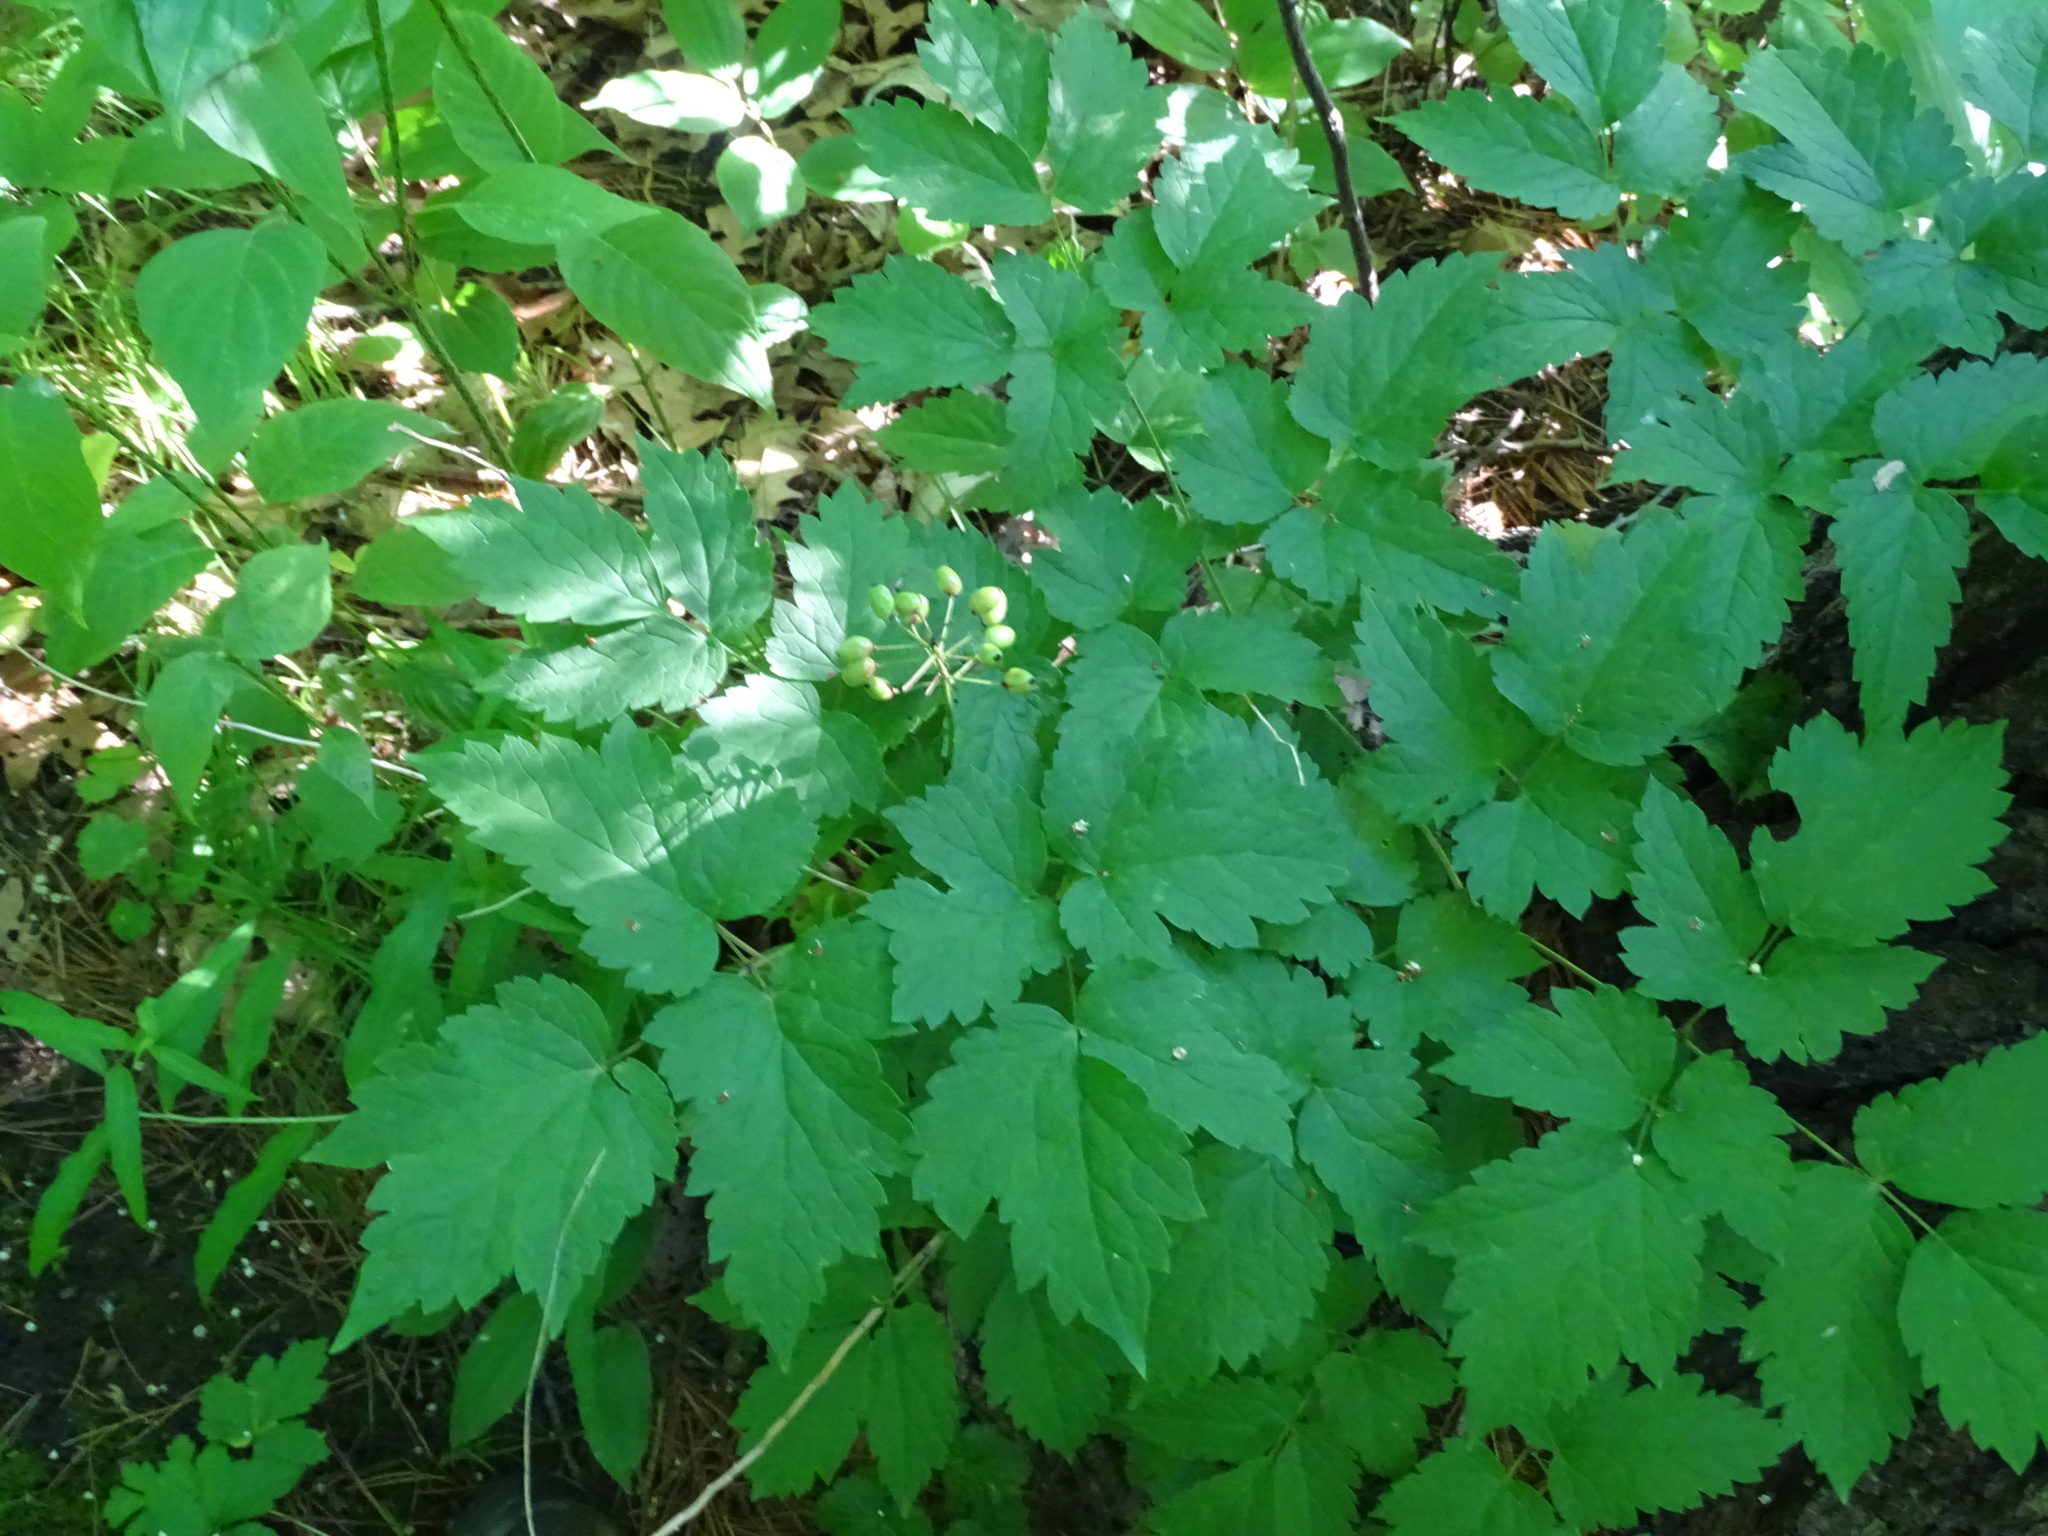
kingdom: Plantae
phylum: Tracheophyta
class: Magnoliopsida
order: Ranunculales
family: Ranunculaceae
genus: Actaea
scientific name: Actaea rubra
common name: Red baneberry
